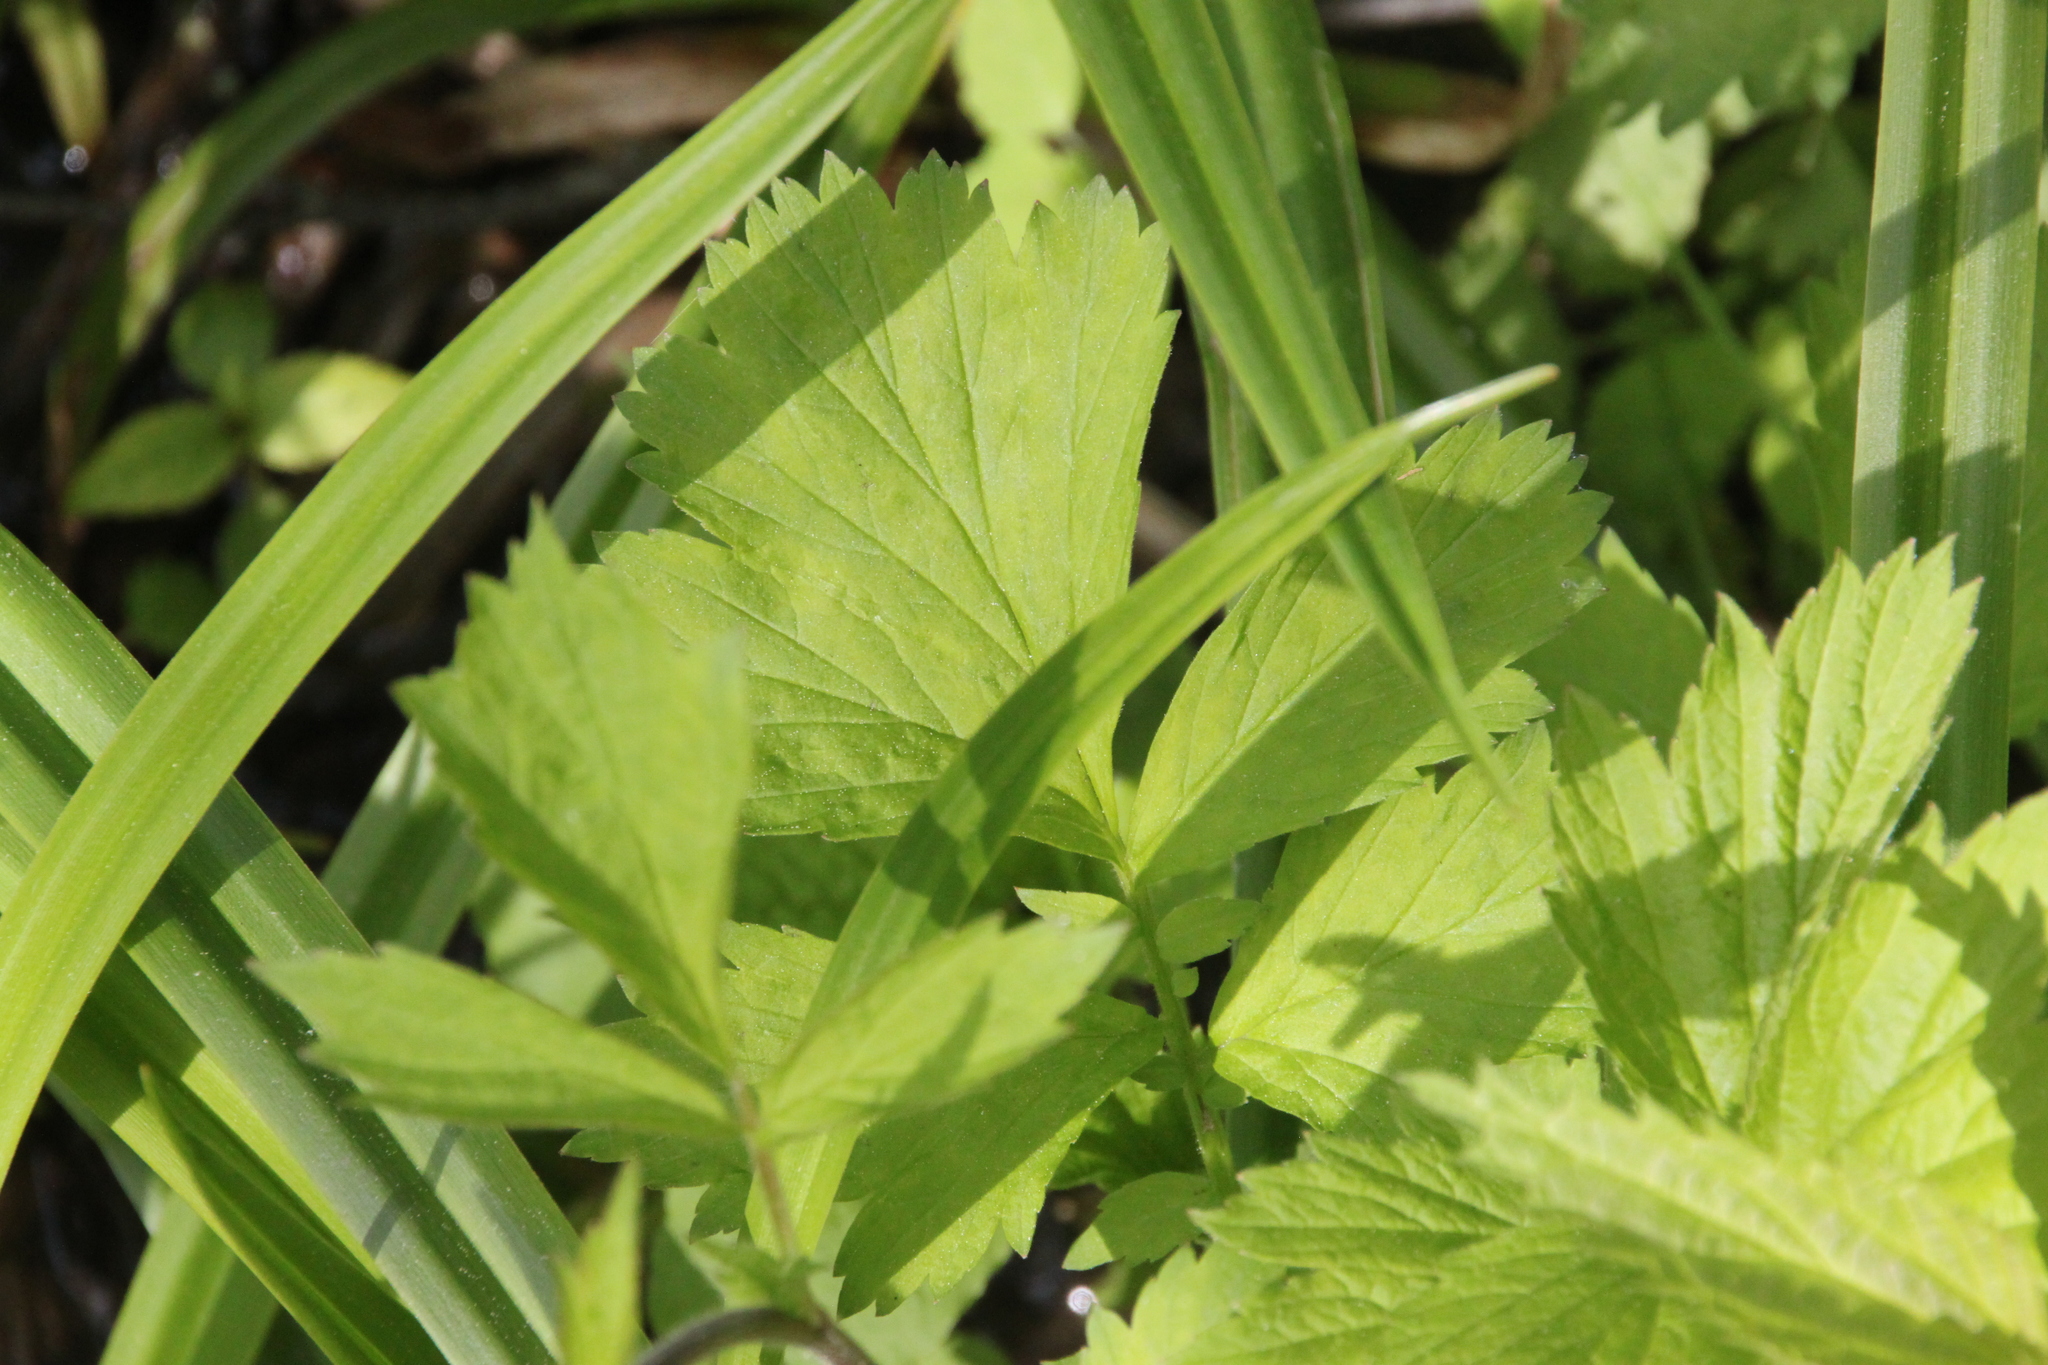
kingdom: Plantae
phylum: Tracheophyta
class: Magnoliopsida
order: Rosales
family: Rosaceae
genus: Geum
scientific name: Geum rivale
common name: Water avens
